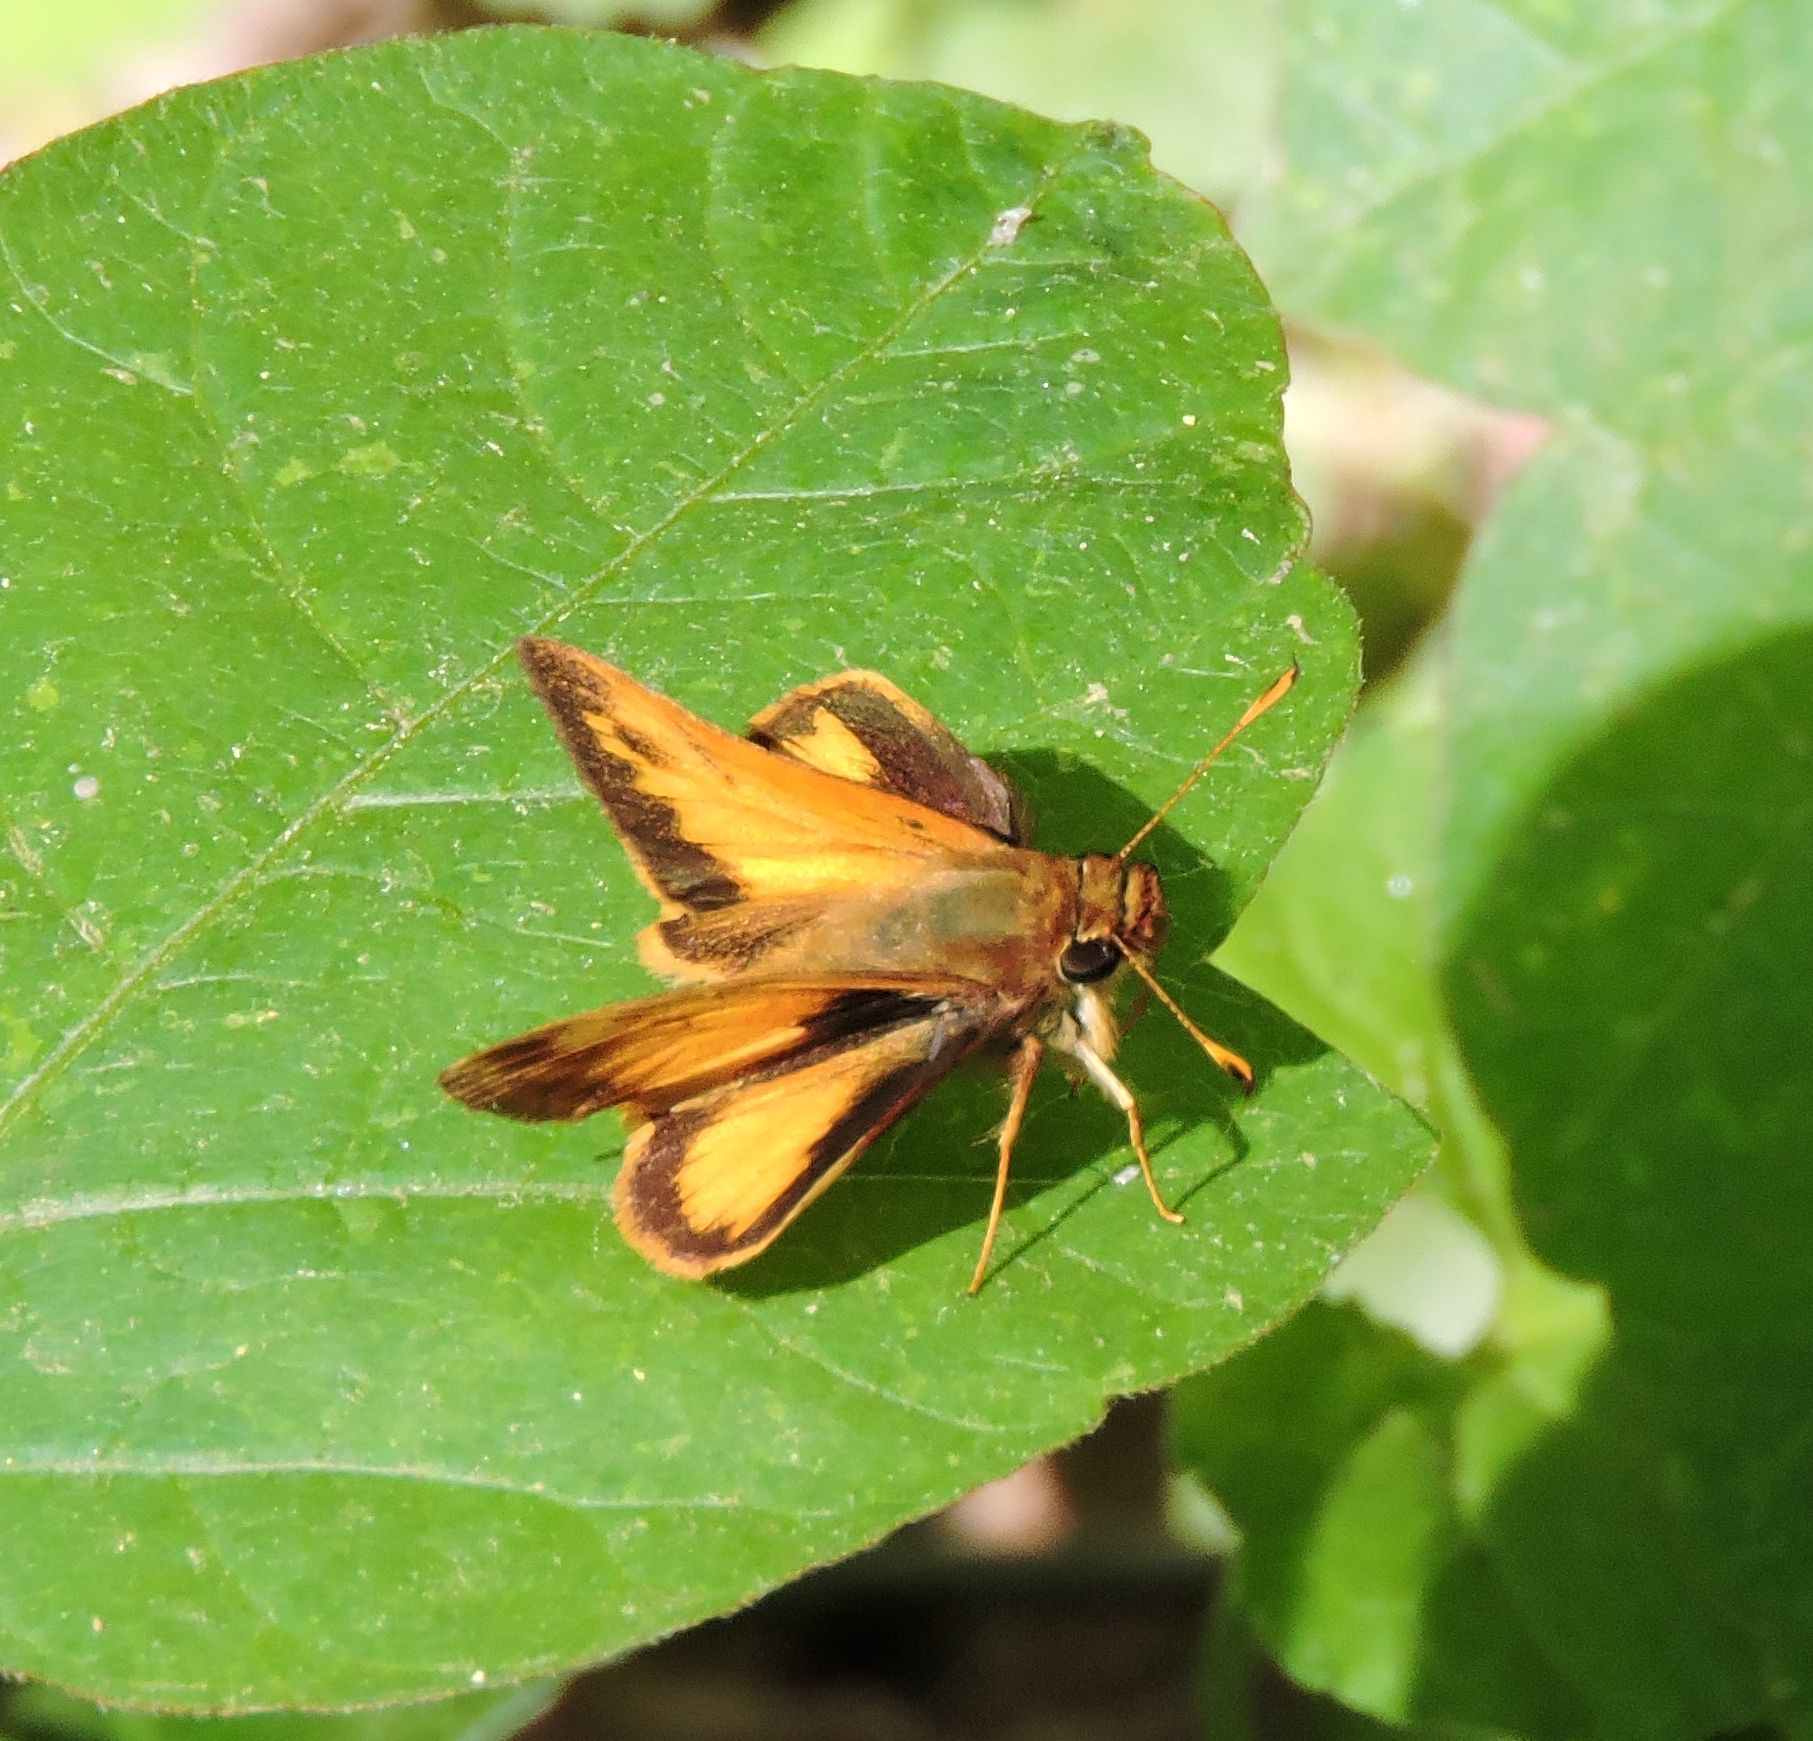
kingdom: Animalia
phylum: Arthropoda
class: Insecta
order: Lepidoptera
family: Hesperiidae
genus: Lon
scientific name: Lon zabulon
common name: Zabulon skipper
